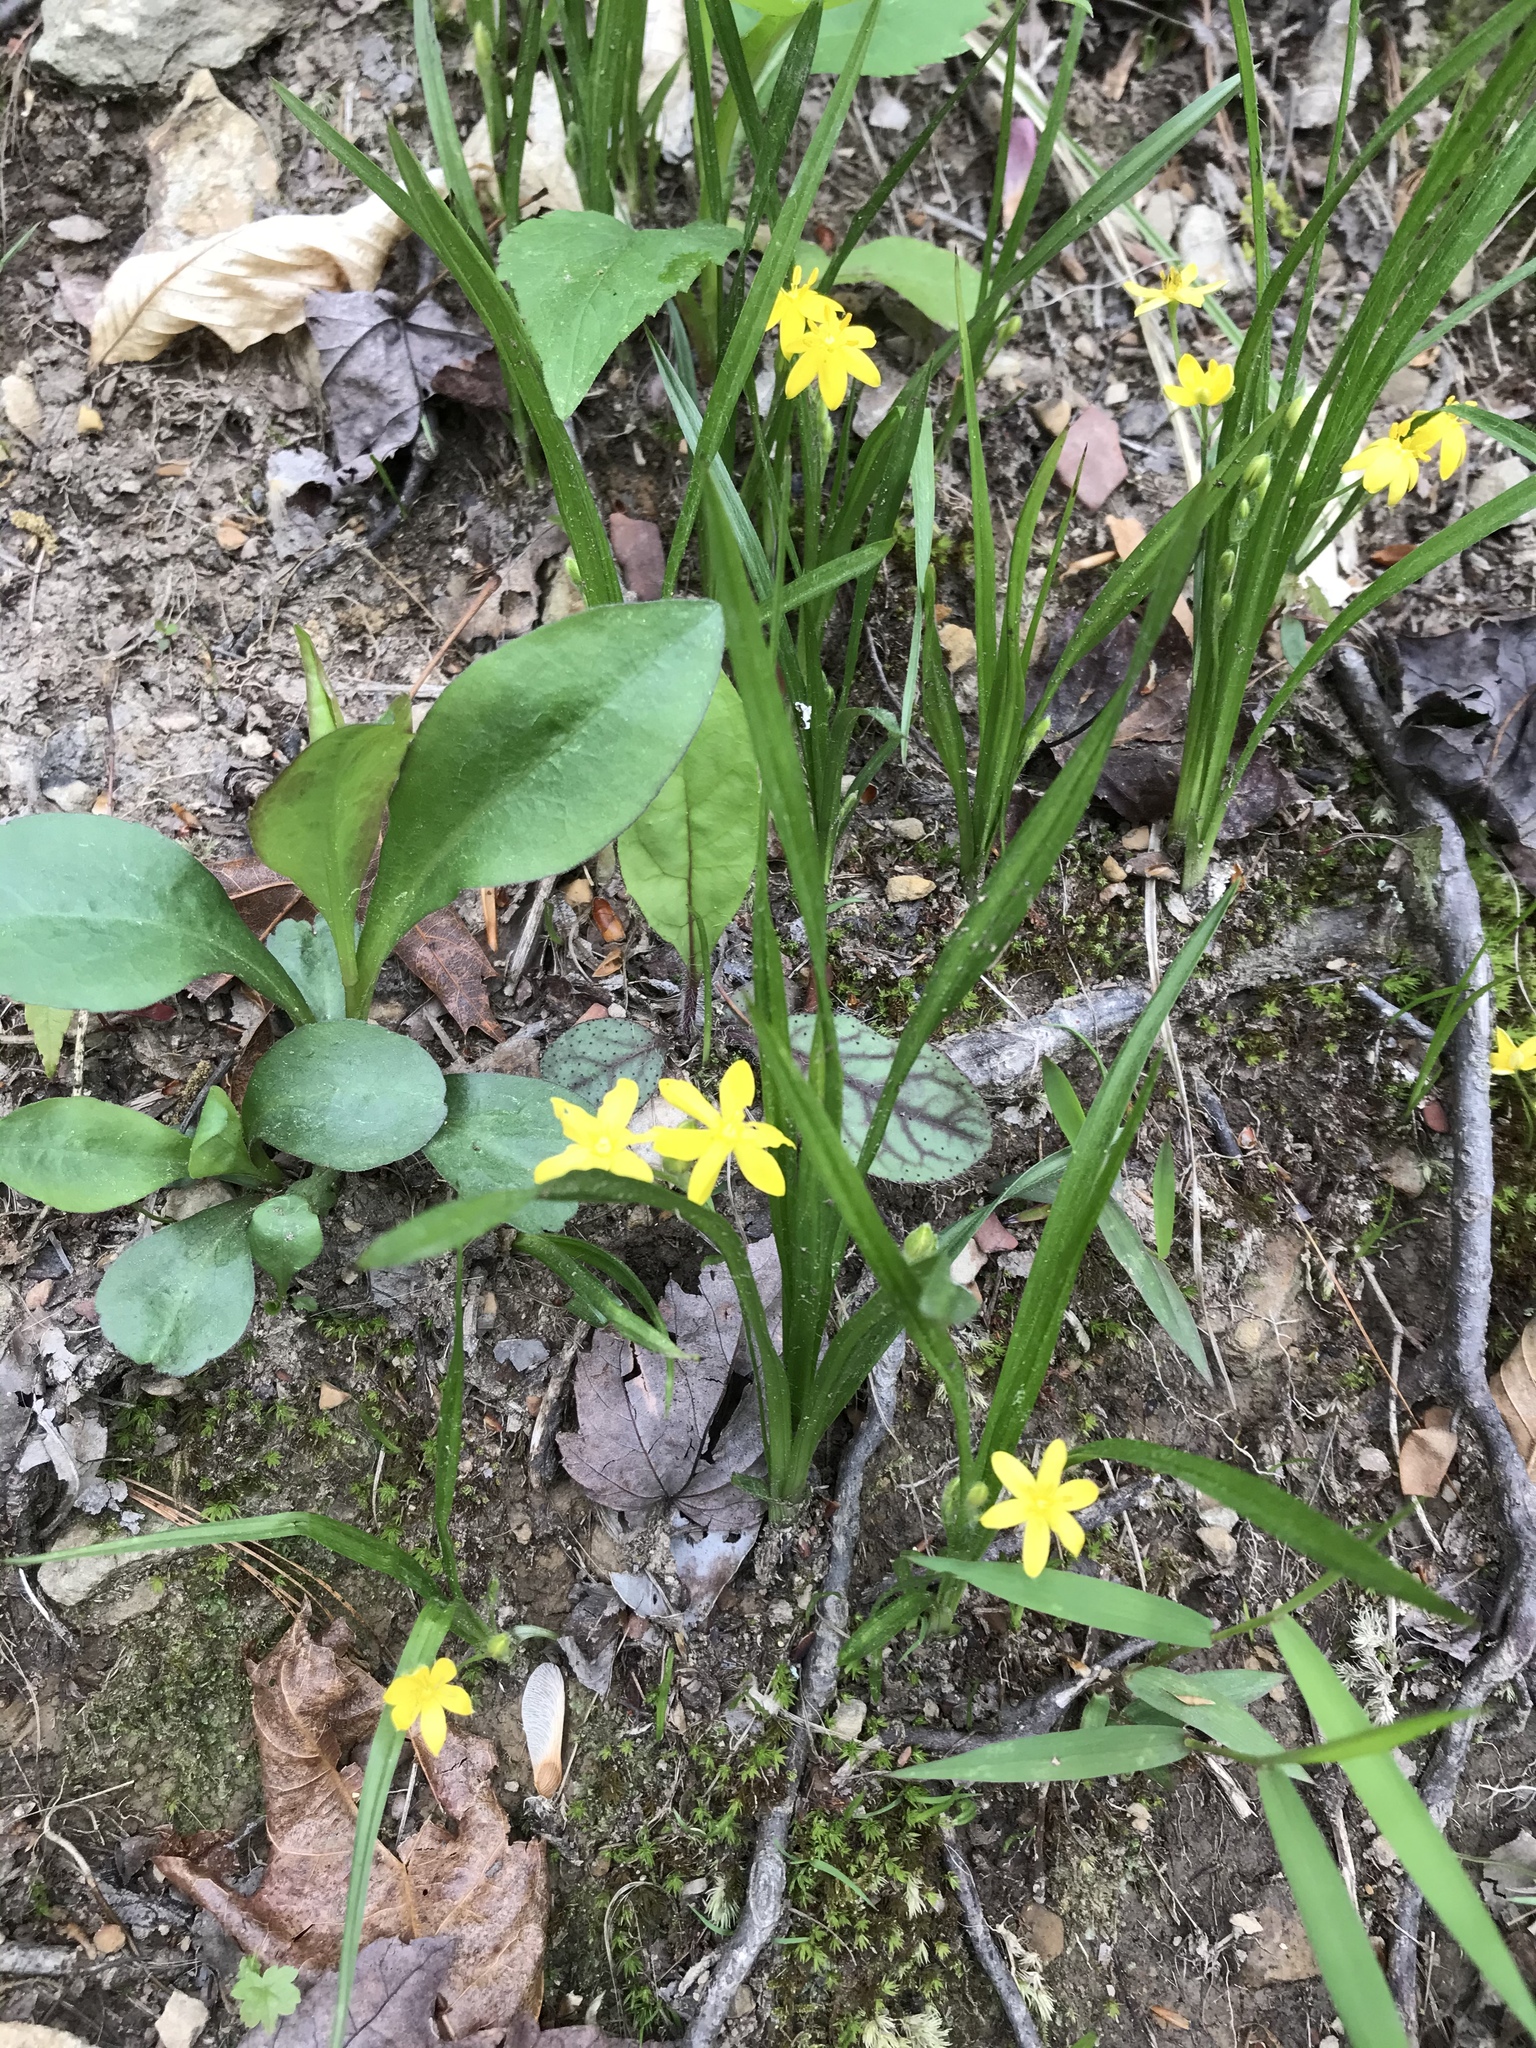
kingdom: Plantae
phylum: Tracheophyta
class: Liliopsida
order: Asparagales
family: Hypoxidaceae
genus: Hypoxis
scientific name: Hypoxis hirsuta
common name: Common goldstar
